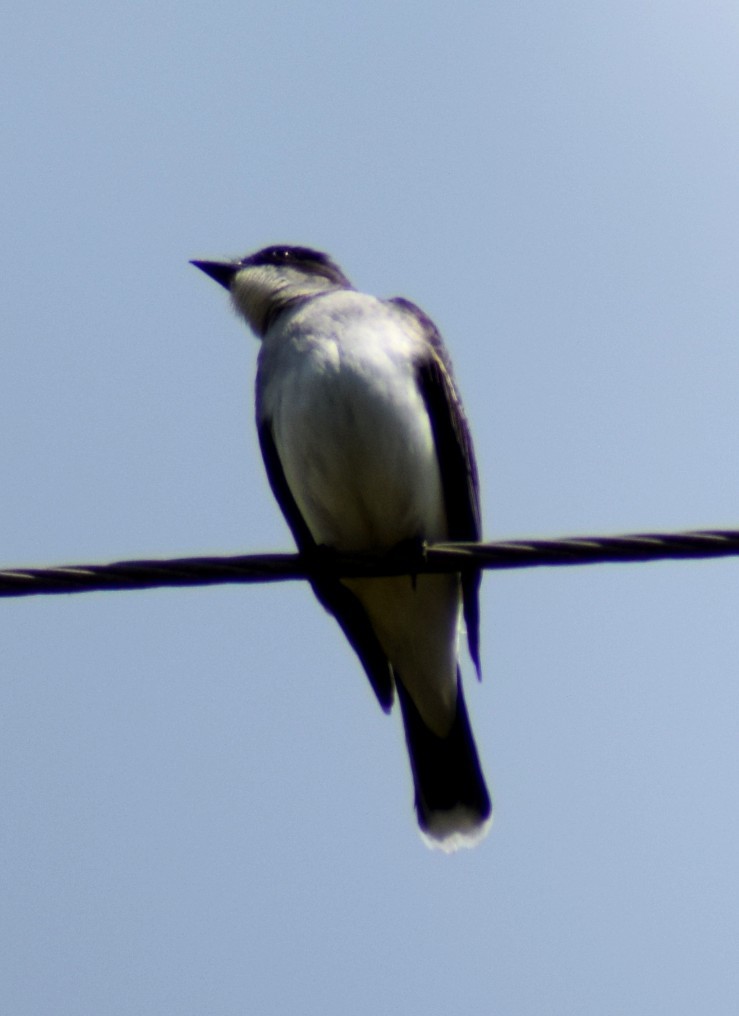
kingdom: Animalia
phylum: Chordata
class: Aves
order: Passeriformes
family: Tyrannidae
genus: Tyrannus
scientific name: Tyrannus tyrannus
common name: Eastern kingbird
